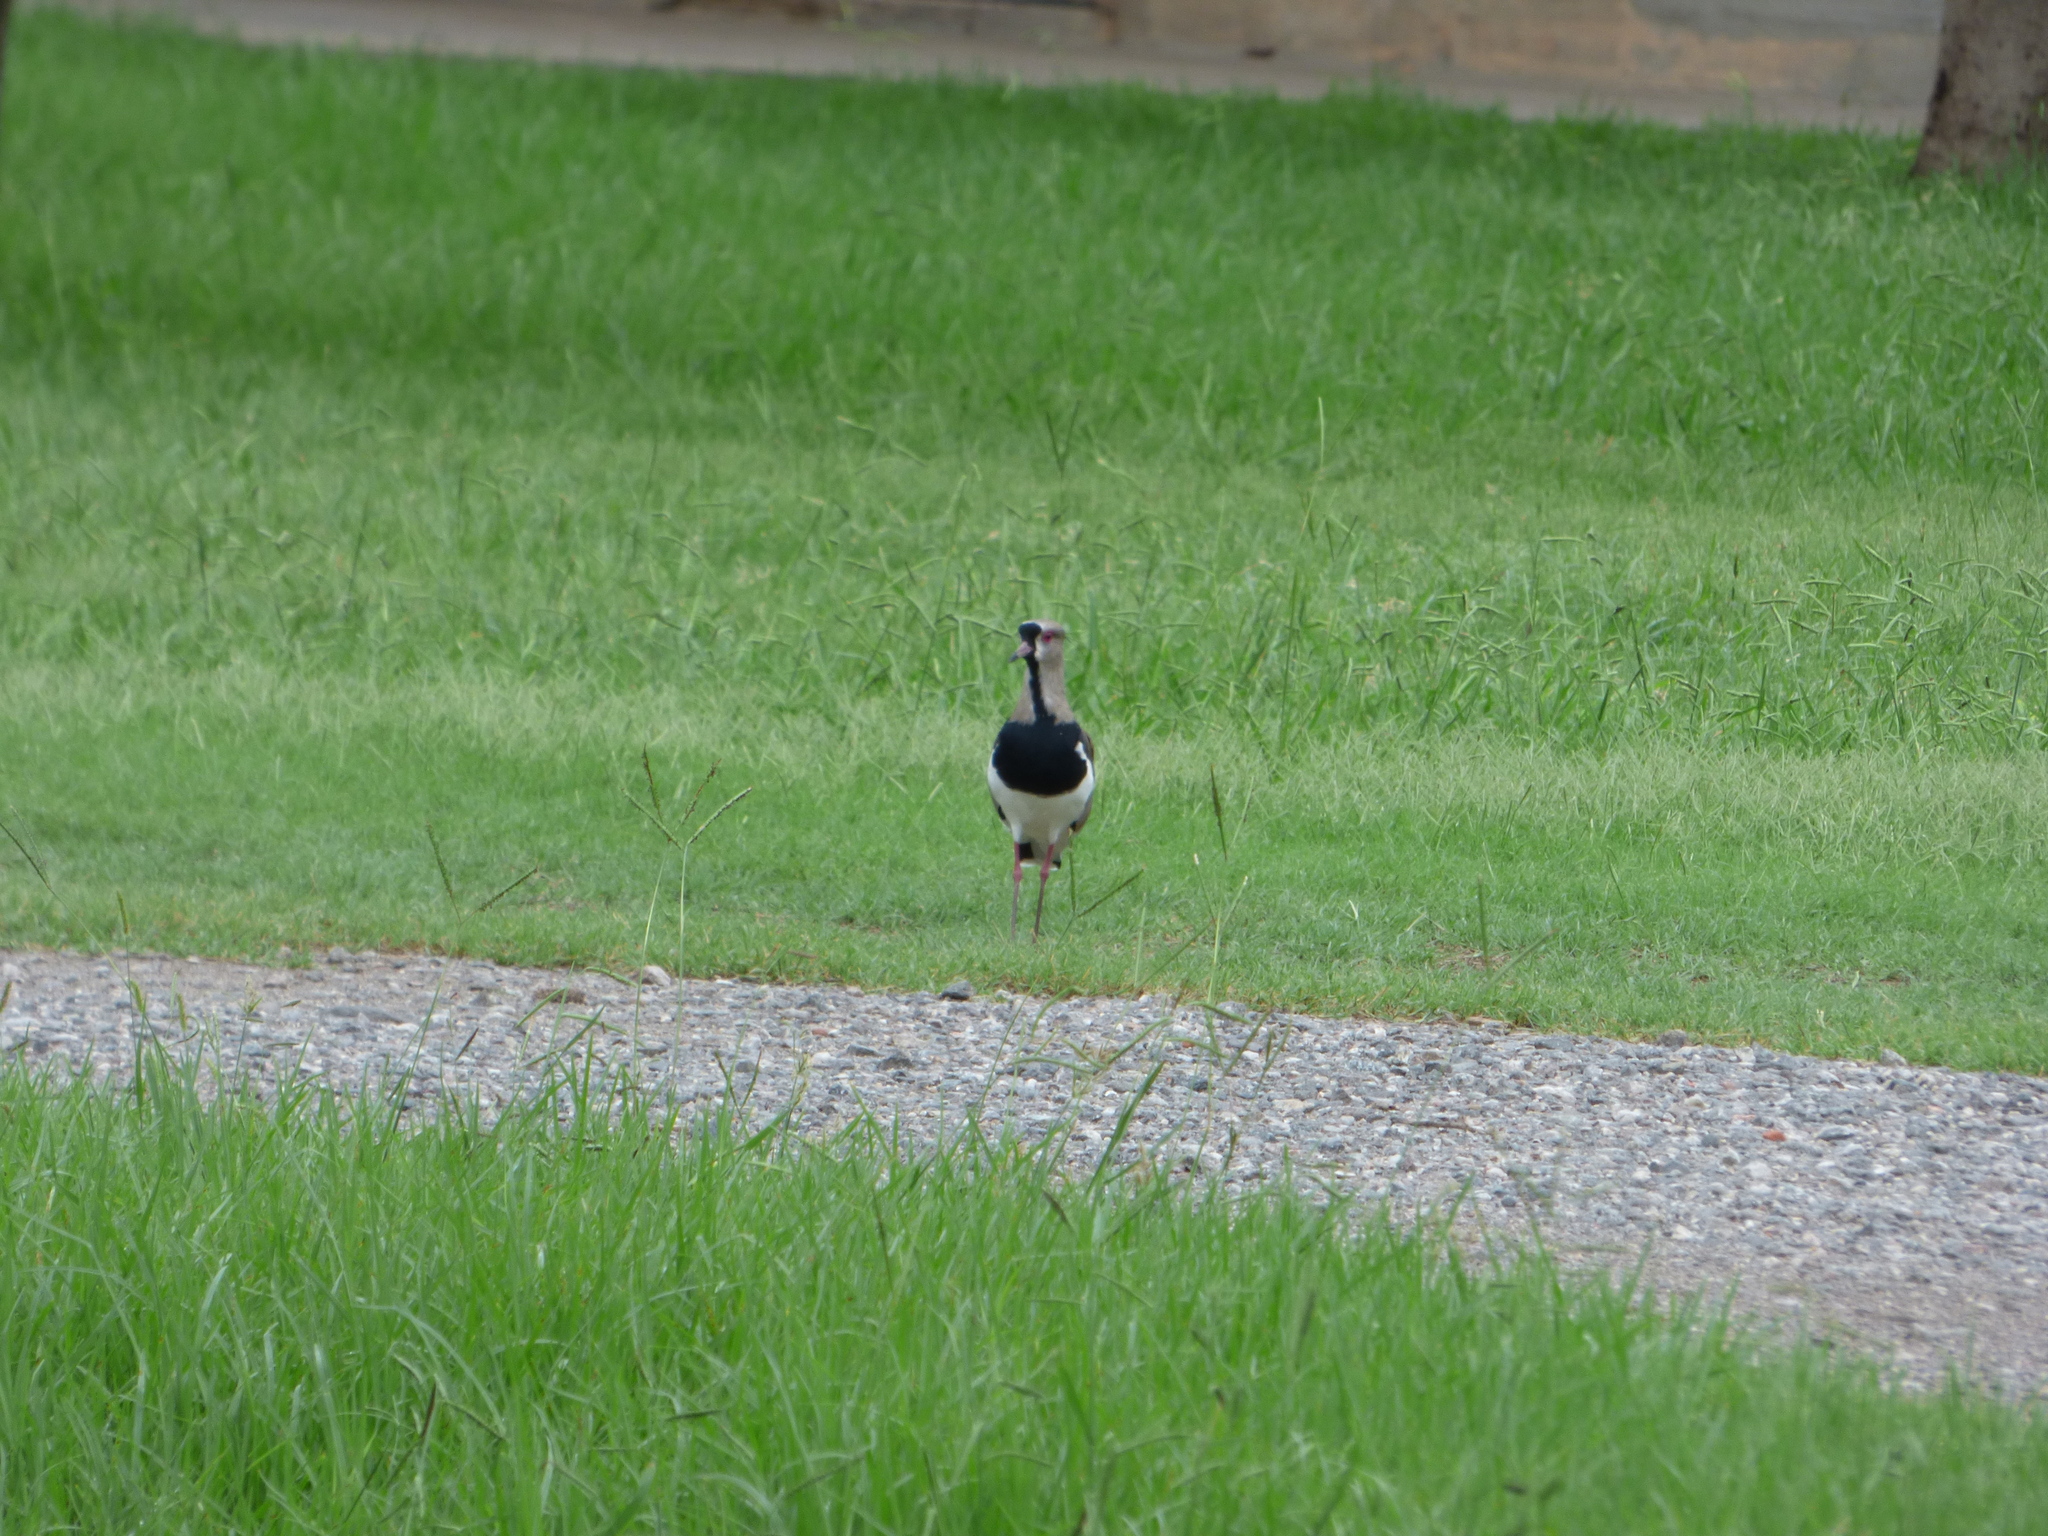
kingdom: Animalia
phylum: Chordata
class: Aves
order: Charadriiformes
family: Charadriidae
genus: Vanellus
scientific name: Vanellus chilensis
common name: Southern lapwing
